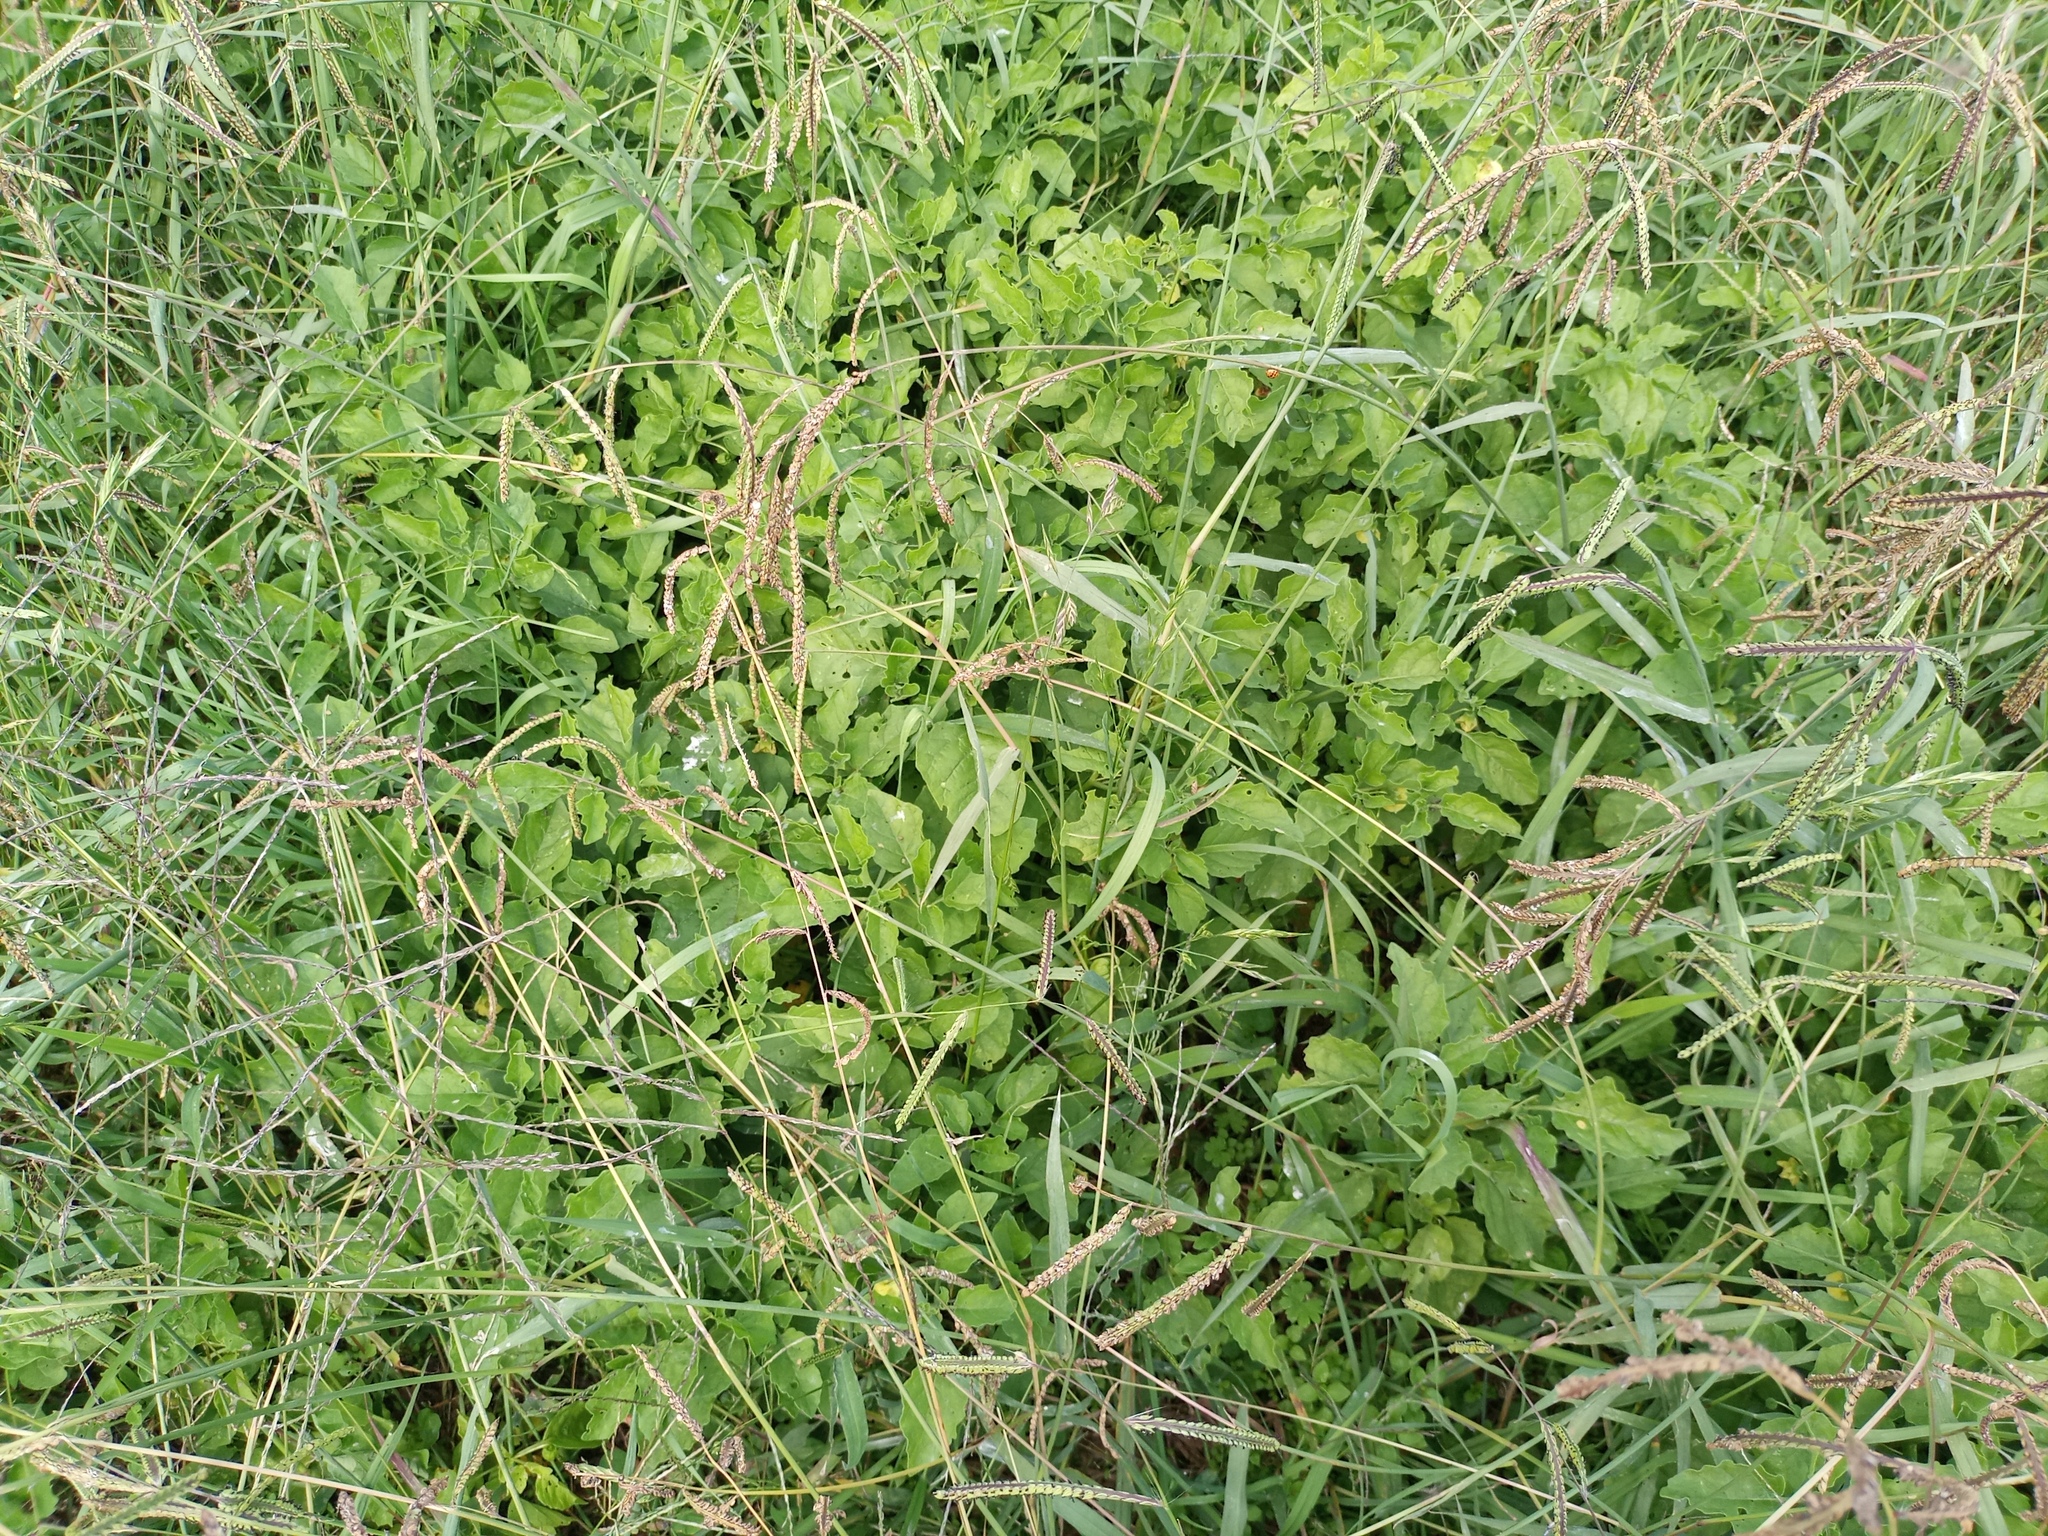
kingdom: Plantae
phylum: Tracheophyta
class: Magnoliopsida
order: Solanales
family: Solanaceae
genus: Physalis
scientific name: Physalis viscosa
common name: Stellate ground-cherry
